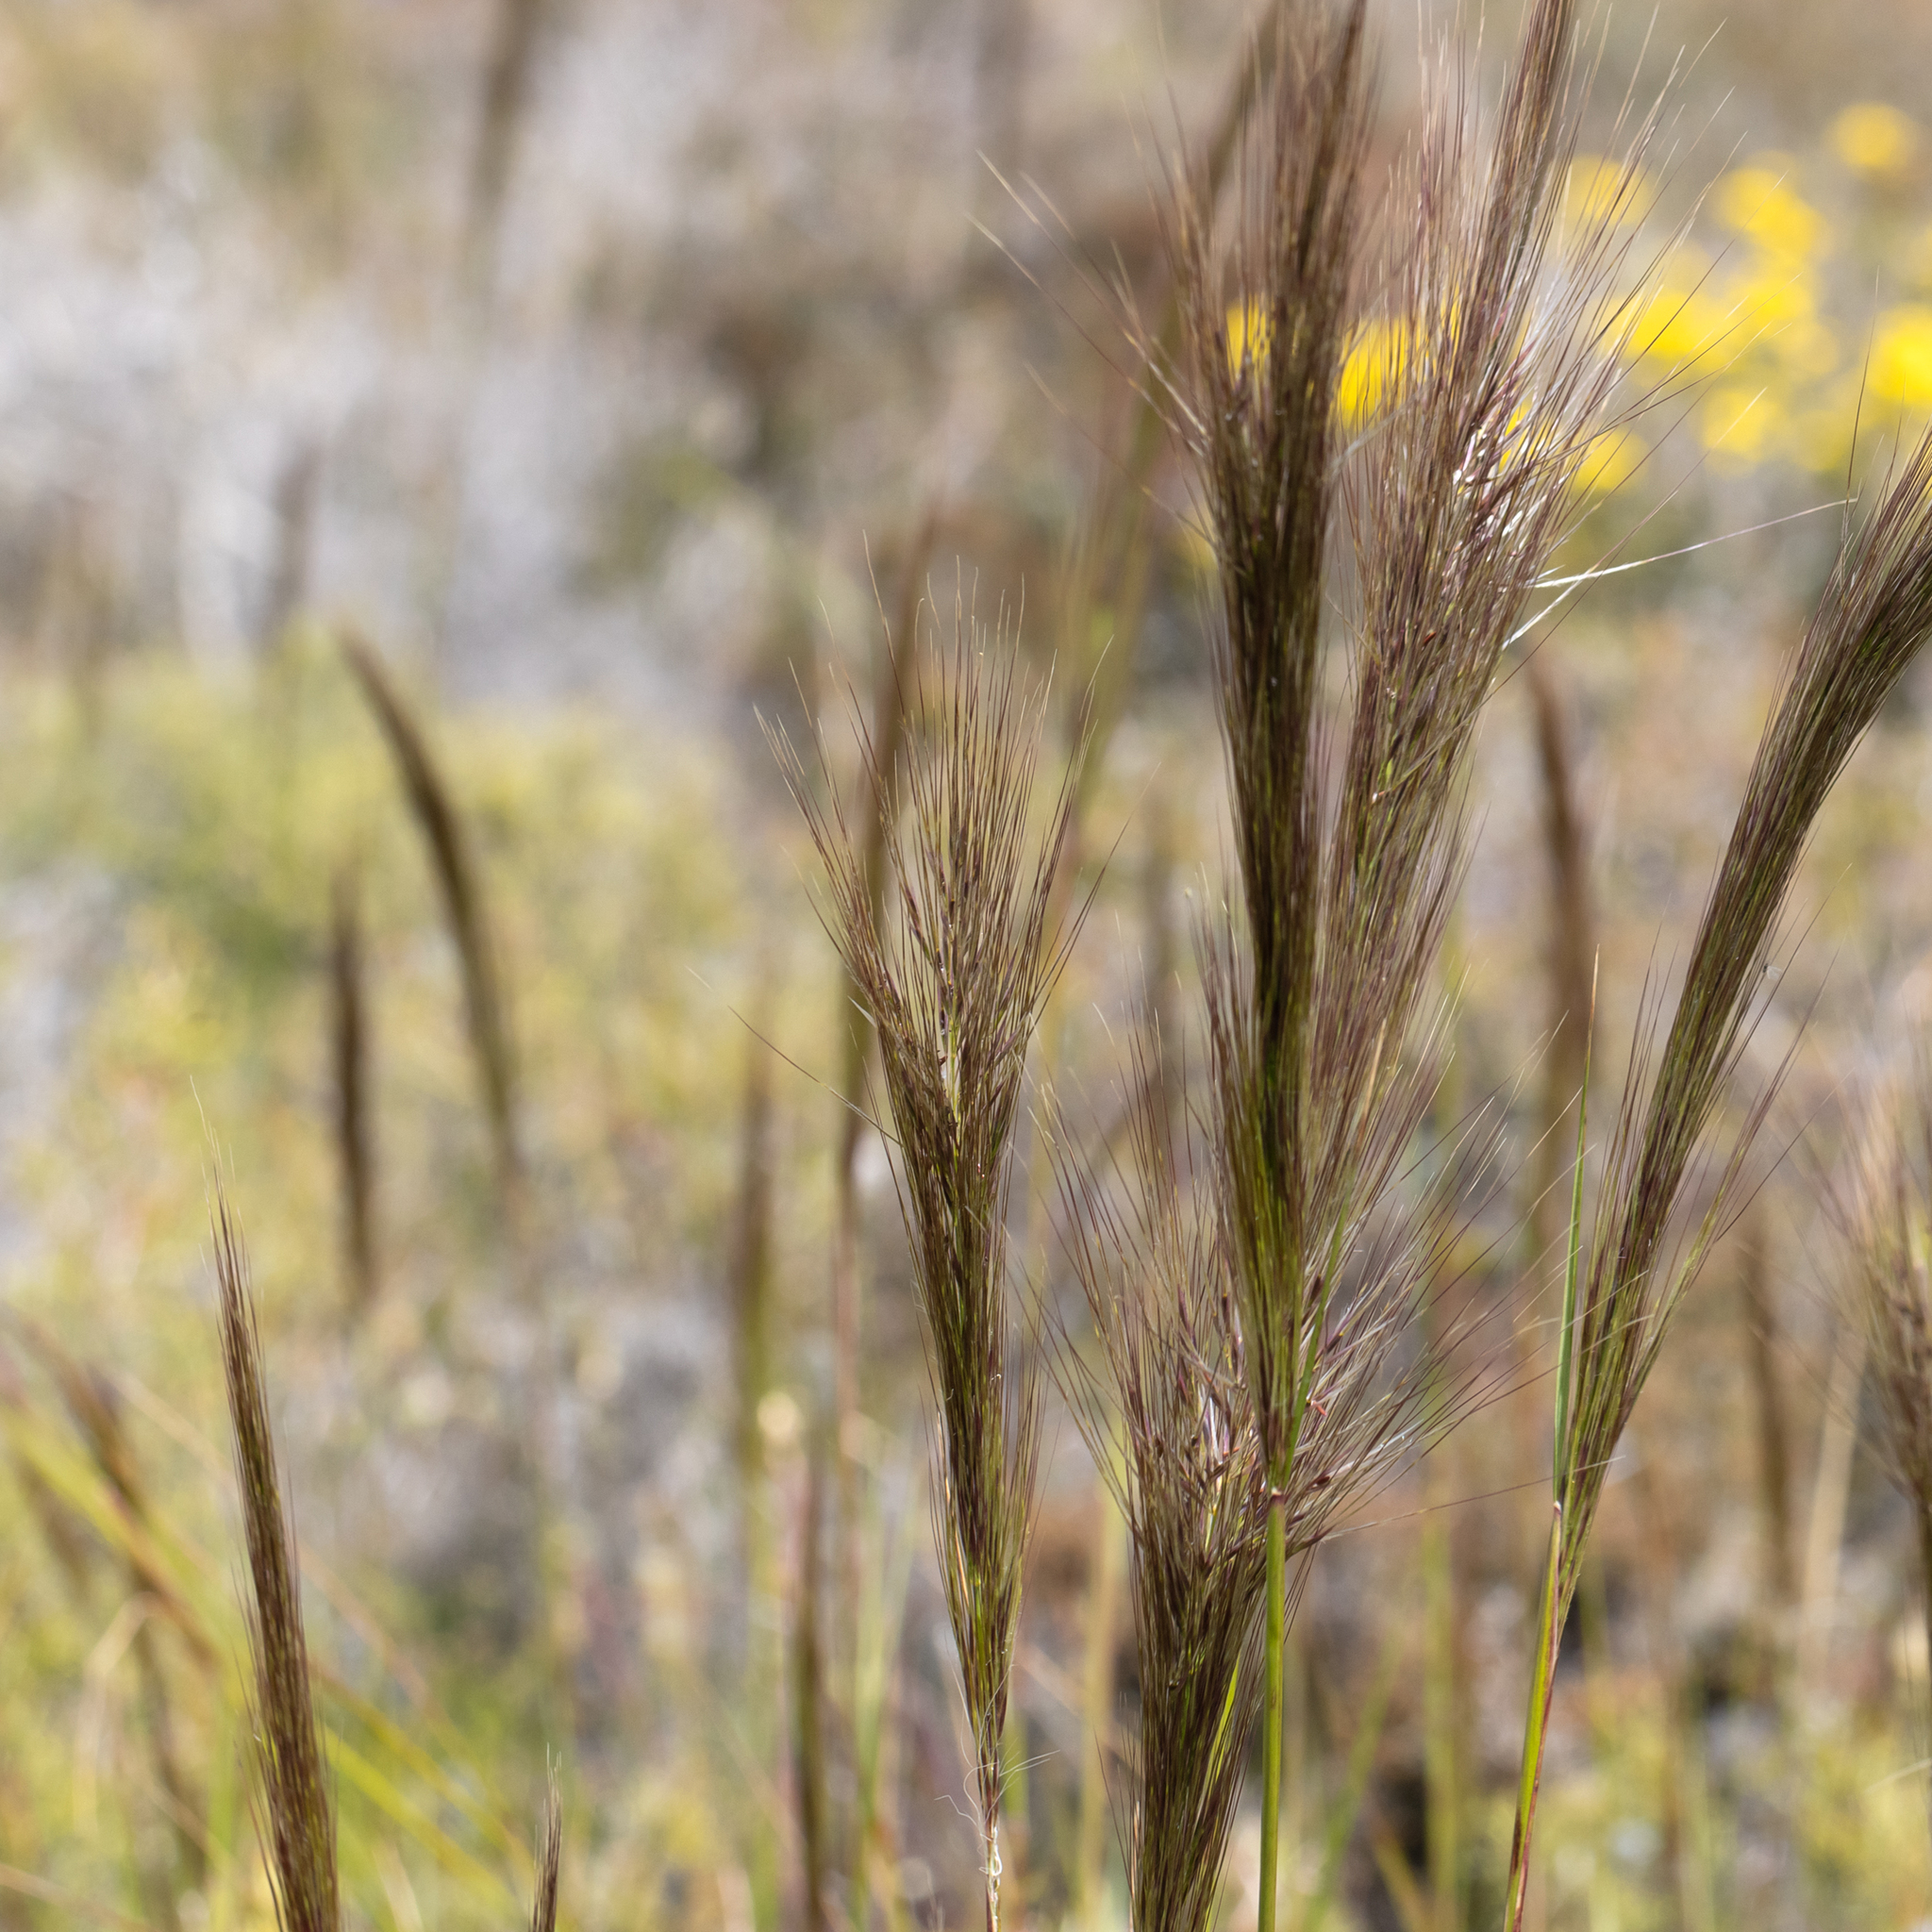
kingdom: Plantae
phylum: Tracheophyta
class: Liliopsida
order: Poales
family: Poaceae
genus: Austrostipa
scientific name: Austrostipa mollis
